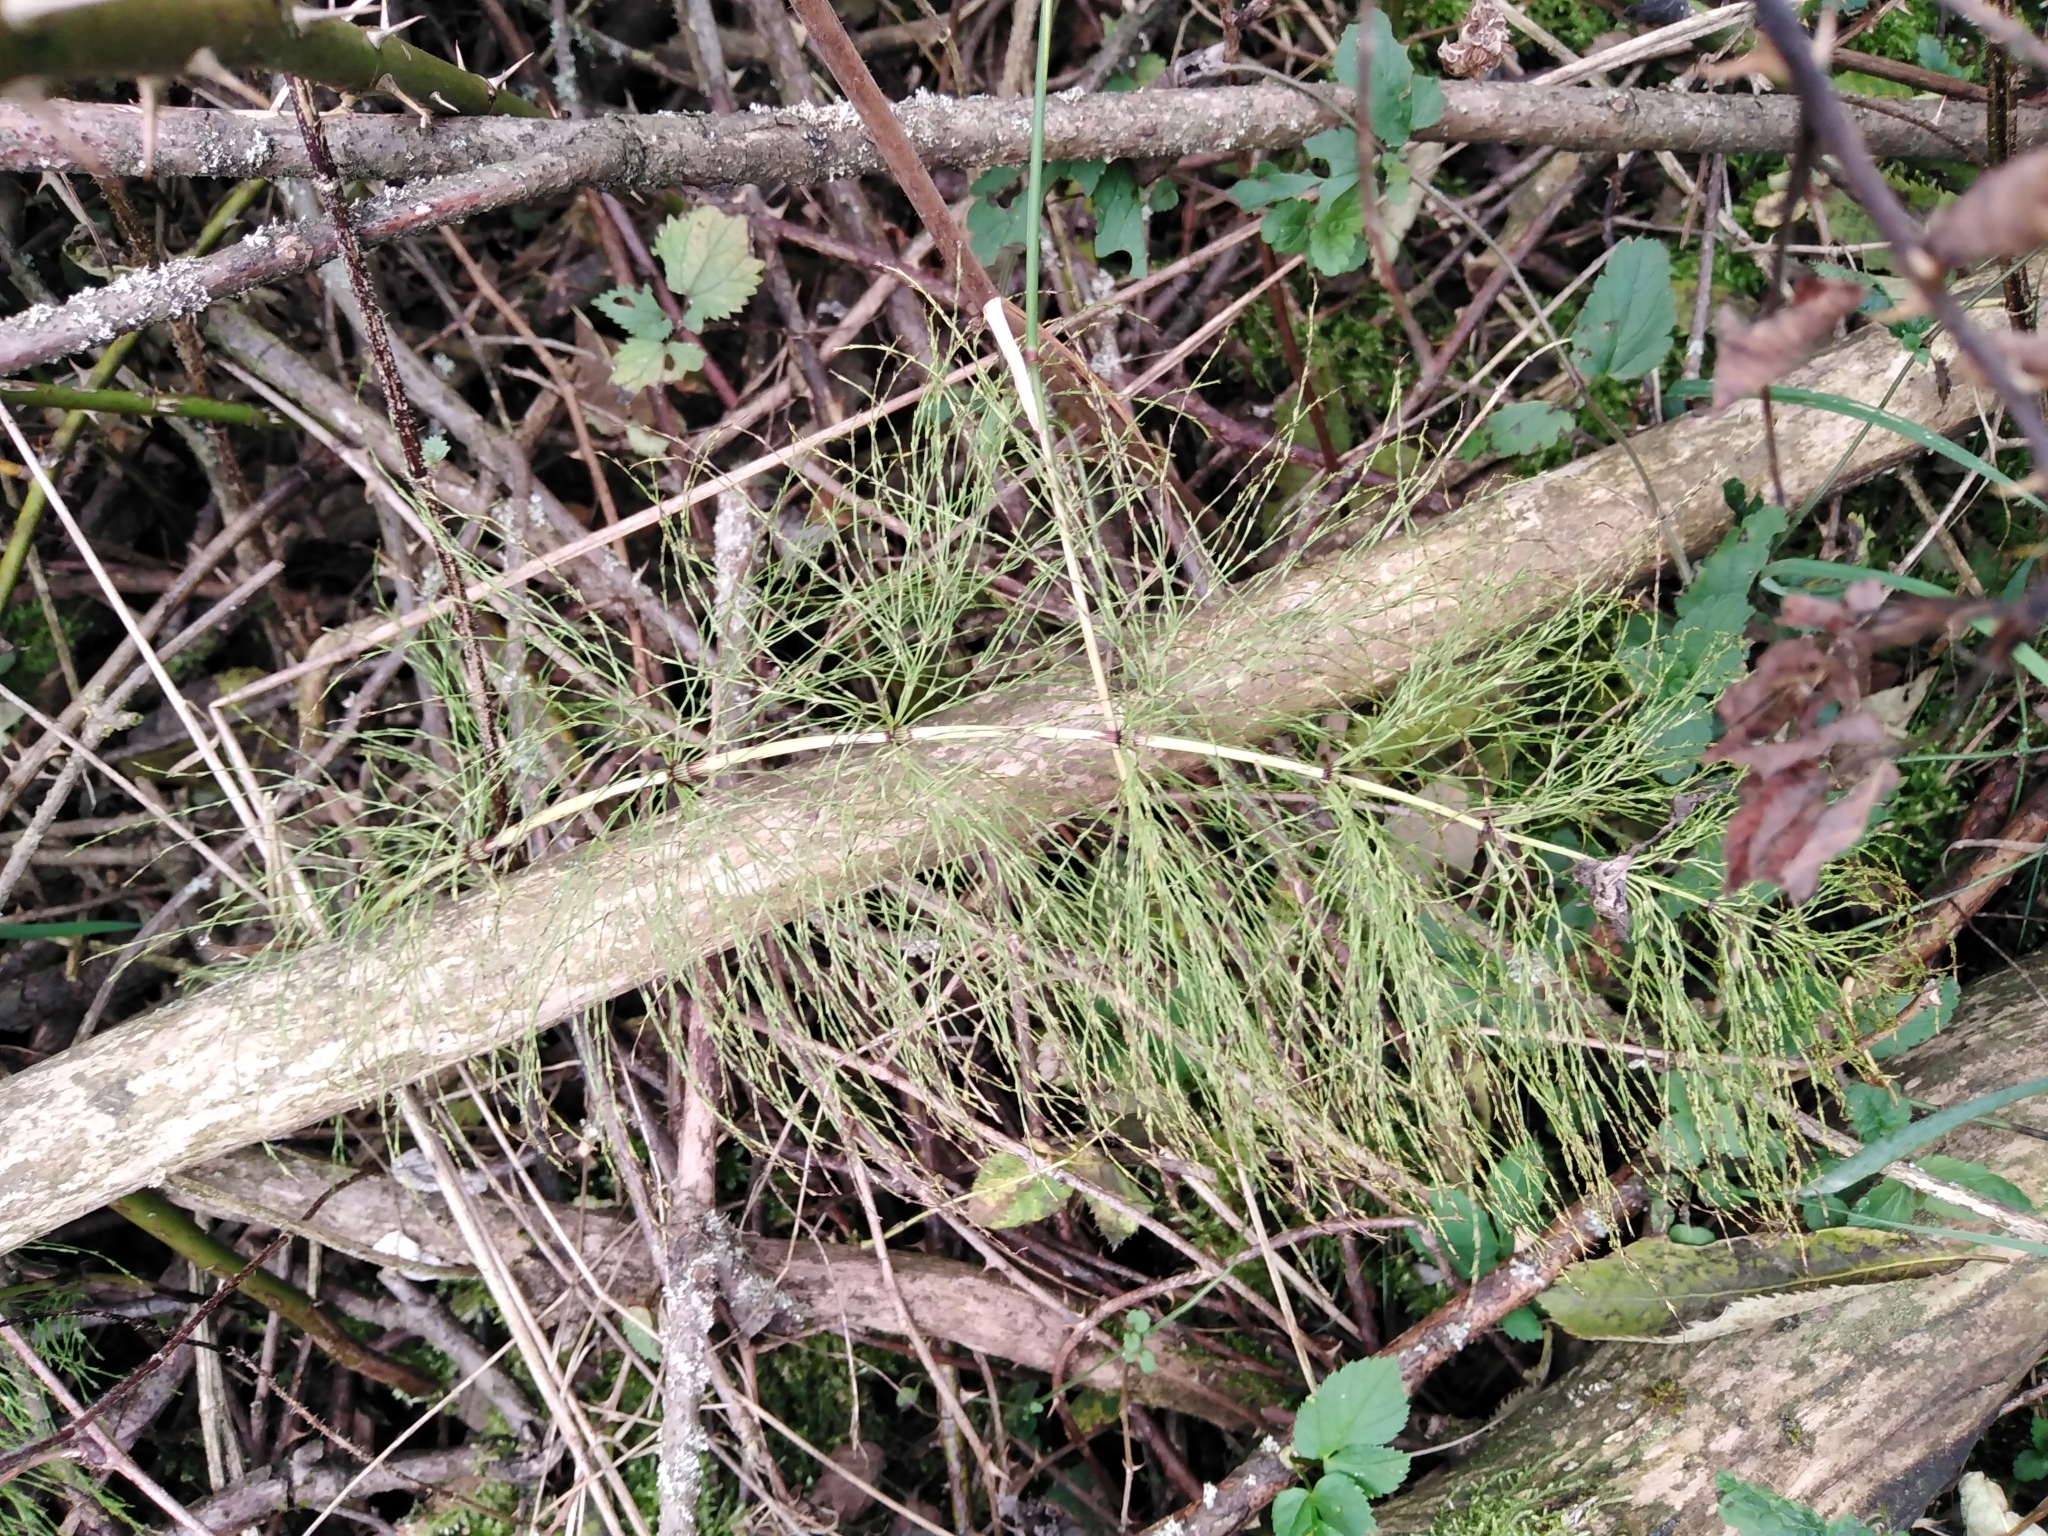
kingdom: Plantae
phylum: Tracheophyta
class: Polypodiopsida
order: Equisetales
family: Equisetaceae
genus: Equisetum
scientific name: Equisetum sylvaticum
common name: Wood horsetail
